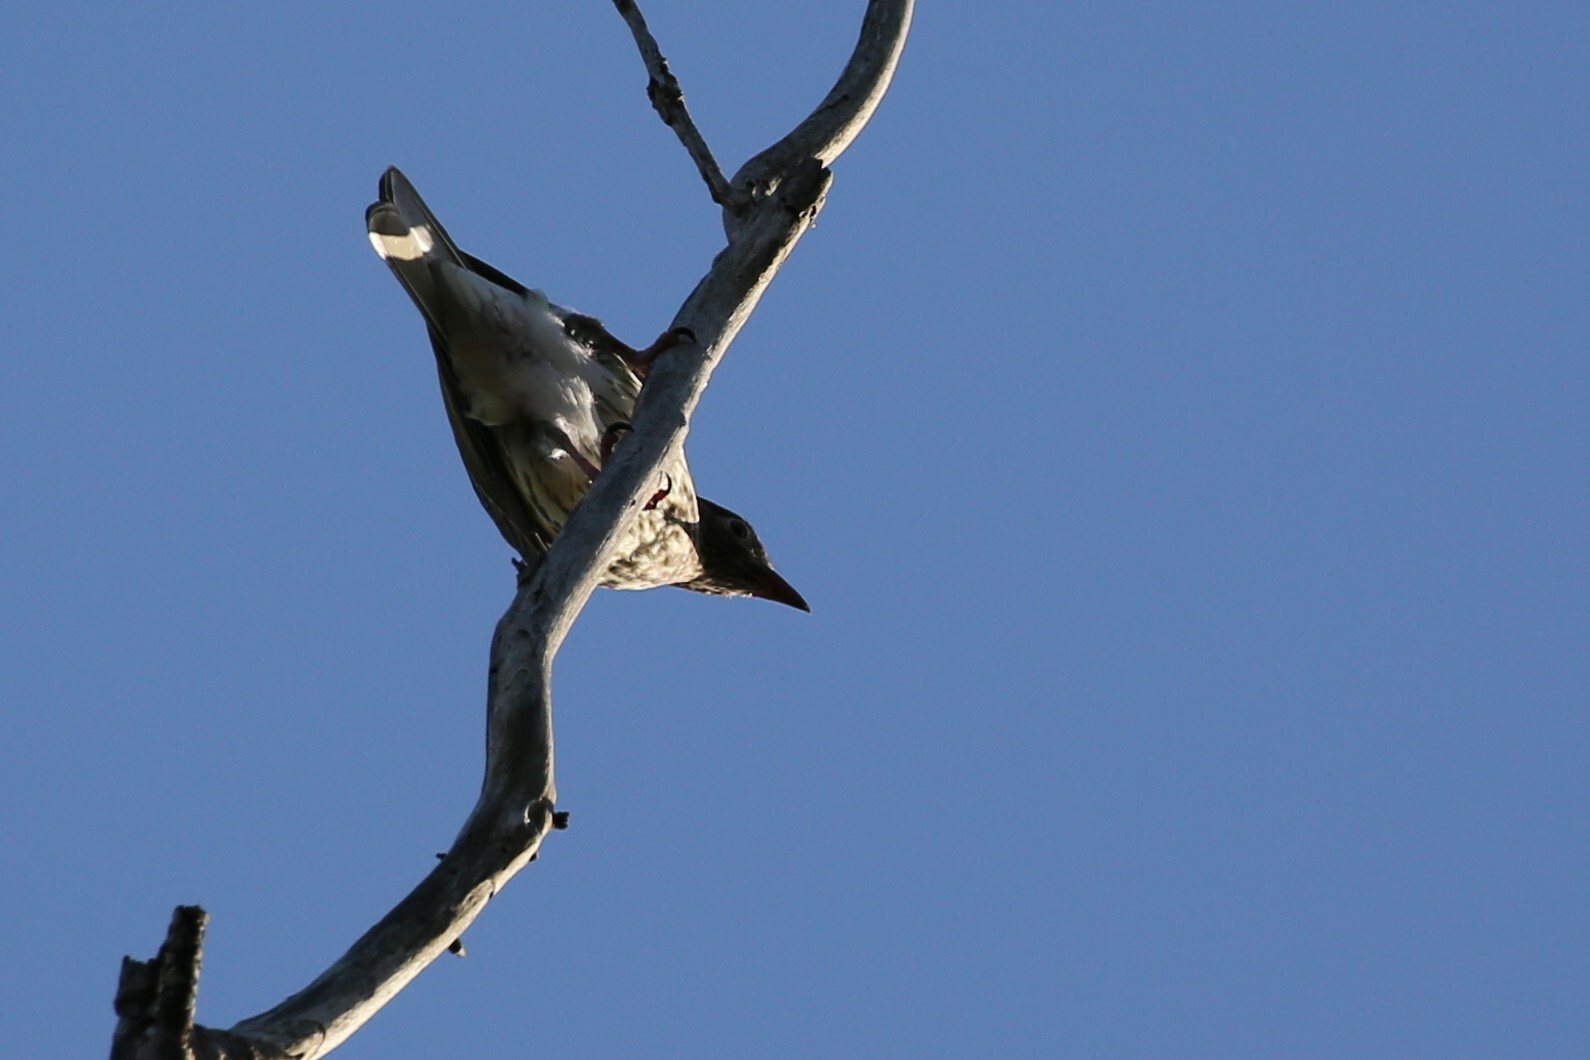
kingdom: Animalia
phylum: Chordata
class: Aves
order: Passeriformes
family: Oriolidae
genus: Sphecotheres
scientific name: Sphecotheres vieilloti
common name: Australasian figbird
